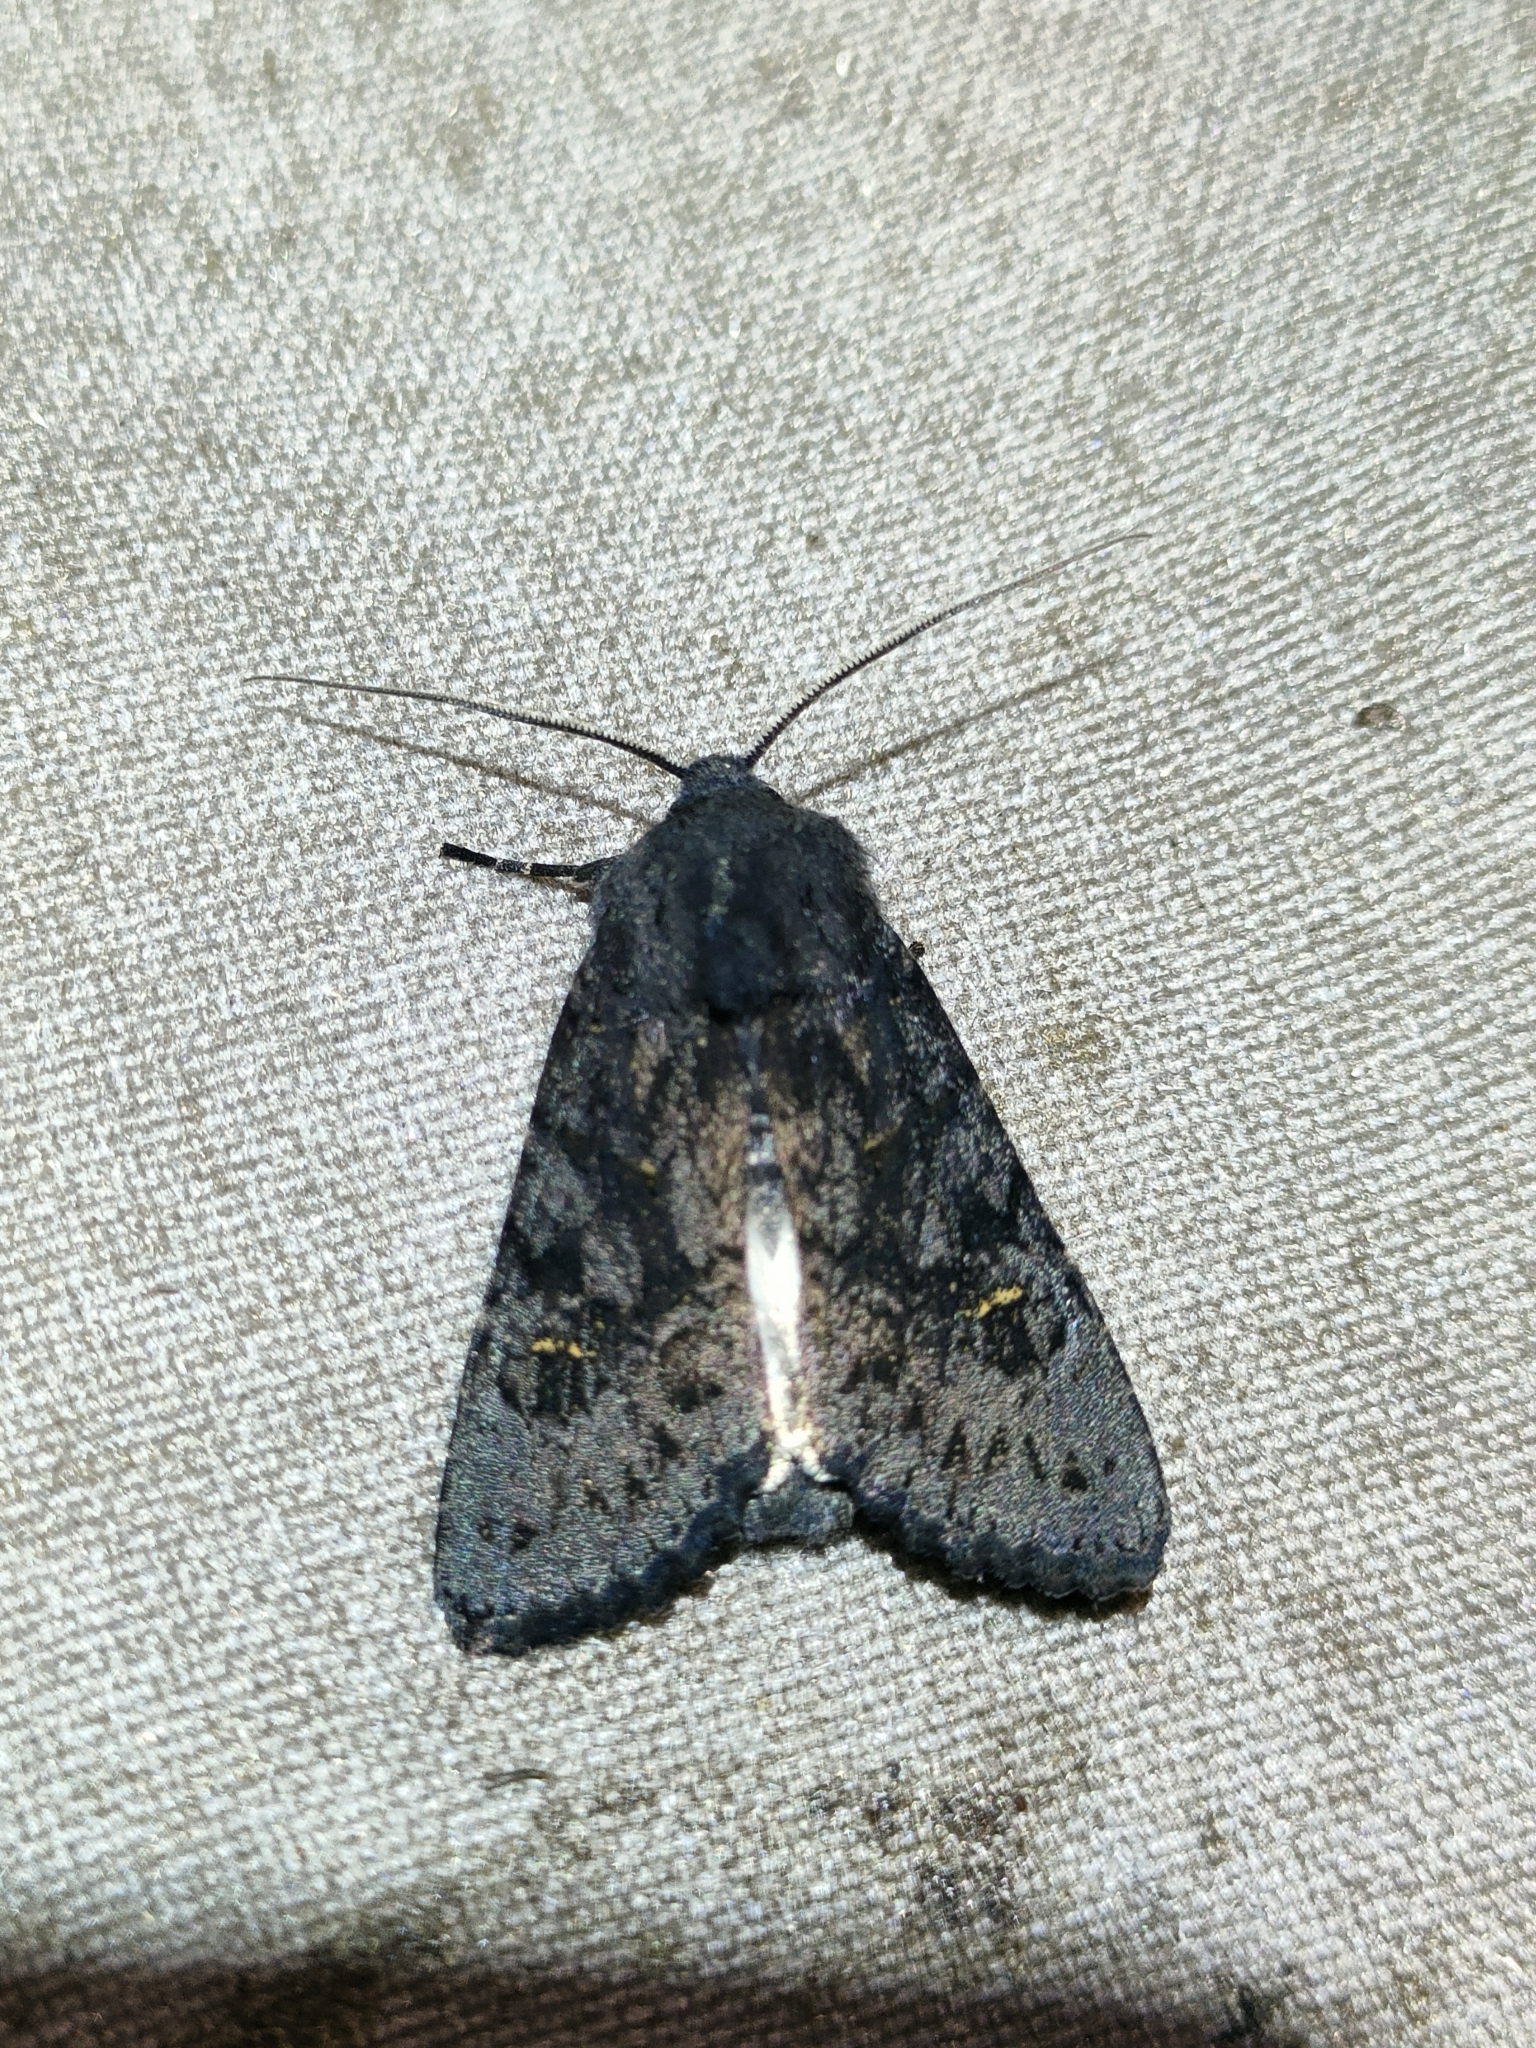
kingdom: Animalia
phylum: Arthropoda
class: Insecta
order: Lepidoptera
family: Noctuidae
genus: Aporophyla
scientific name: Aporophyla nigra
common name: Black rustic
